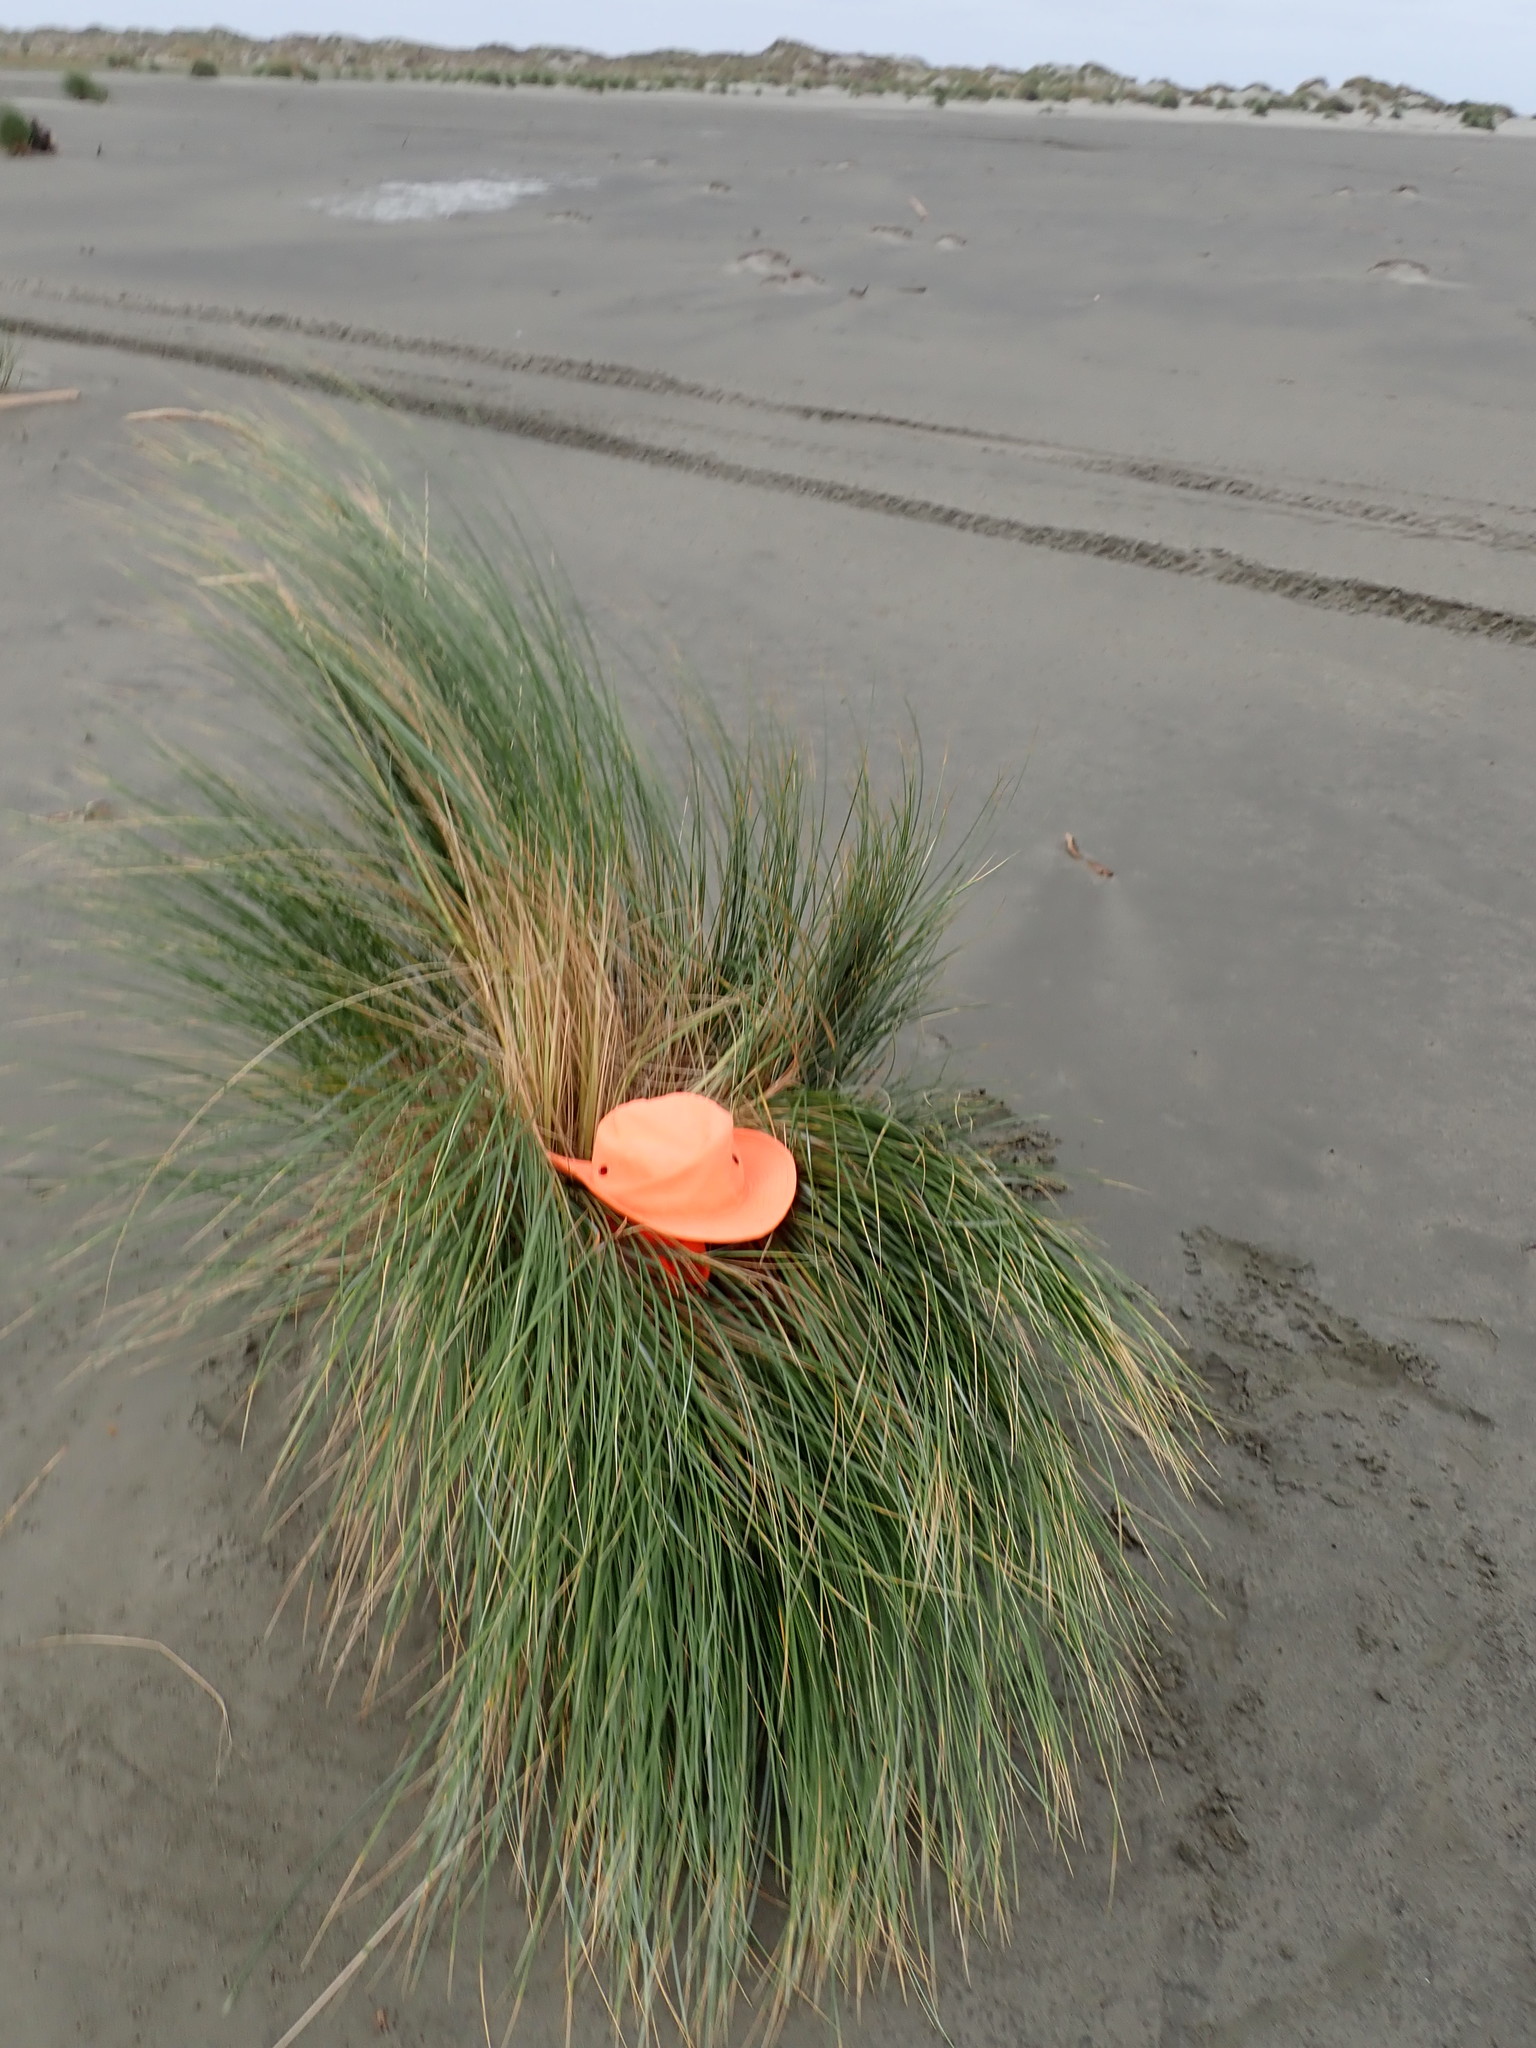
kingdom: Animalia
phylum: Arthropoda
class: Arachnida
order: Araneae
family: Pisauridae
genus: Dolomedes
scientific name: Dolomedes minor
